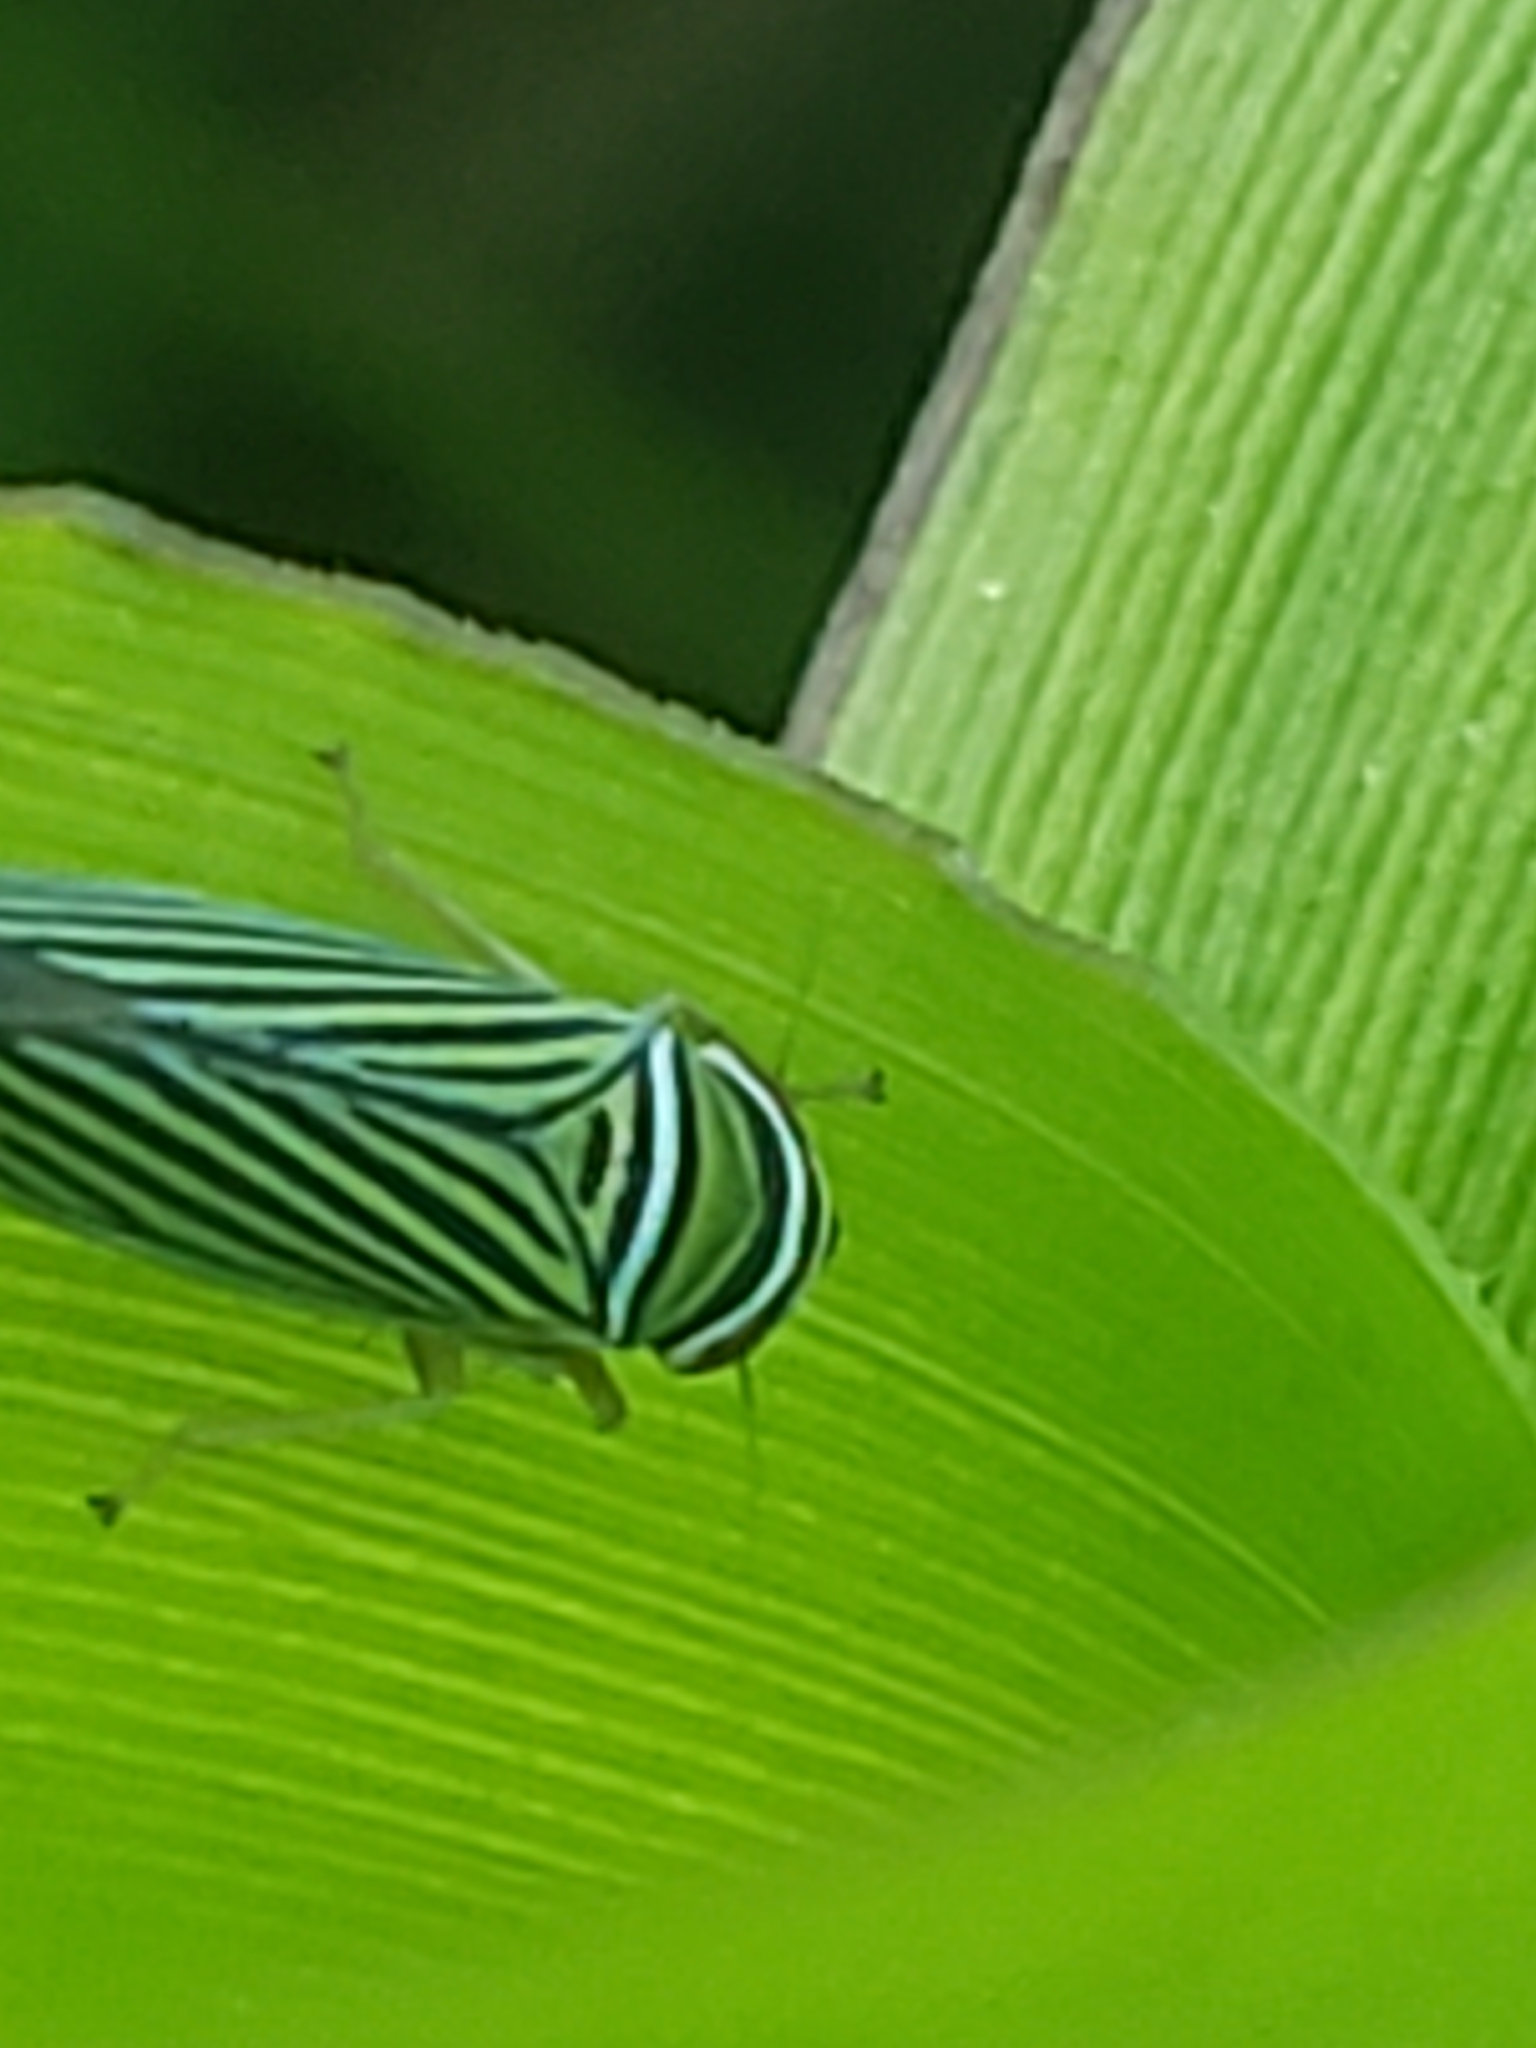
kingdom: Animalia
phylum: Arthropoda
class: Insecta
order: Hemiptera
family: Cicadellidae
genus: Tylozygus
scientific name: Tylozygus bifidus
